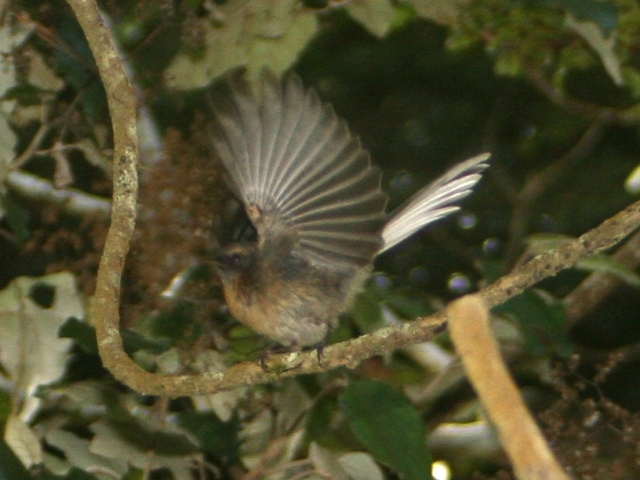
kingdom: Animalia
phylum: Chordata
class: Aves
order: Passeriformes
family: Rhipiduridae
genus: Rhipidura
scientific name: Rhipidura fuliginosa
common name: New zealand fantail
